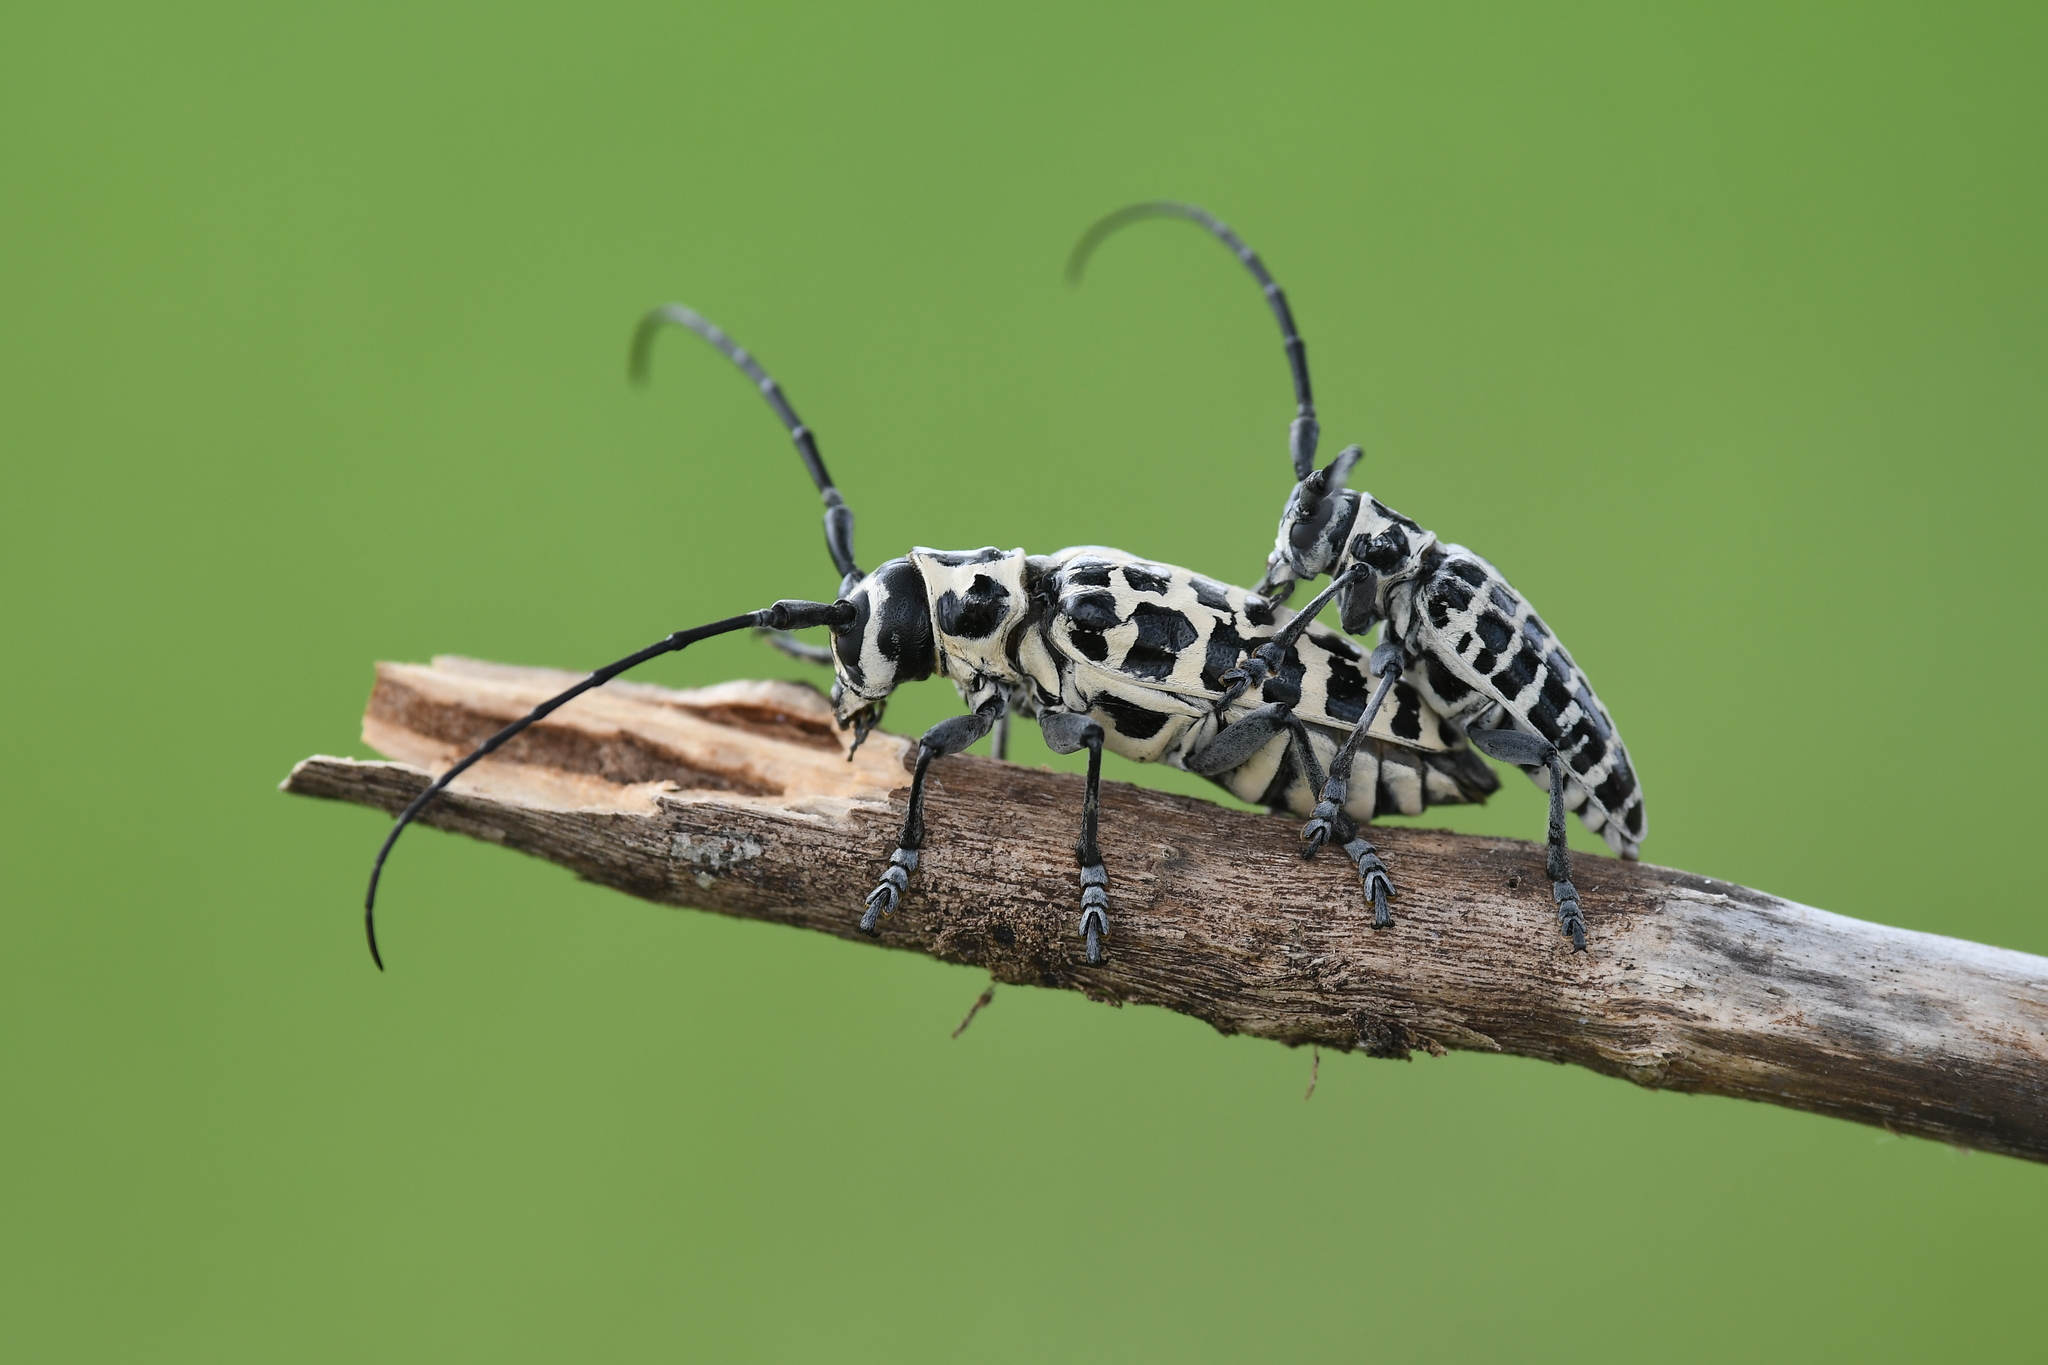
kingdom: Animalia
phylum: Arthropoda
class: Insecta
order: Coleoptera
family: Cerambycidae
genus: Plectrodera
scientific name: Plectrodera scalator
